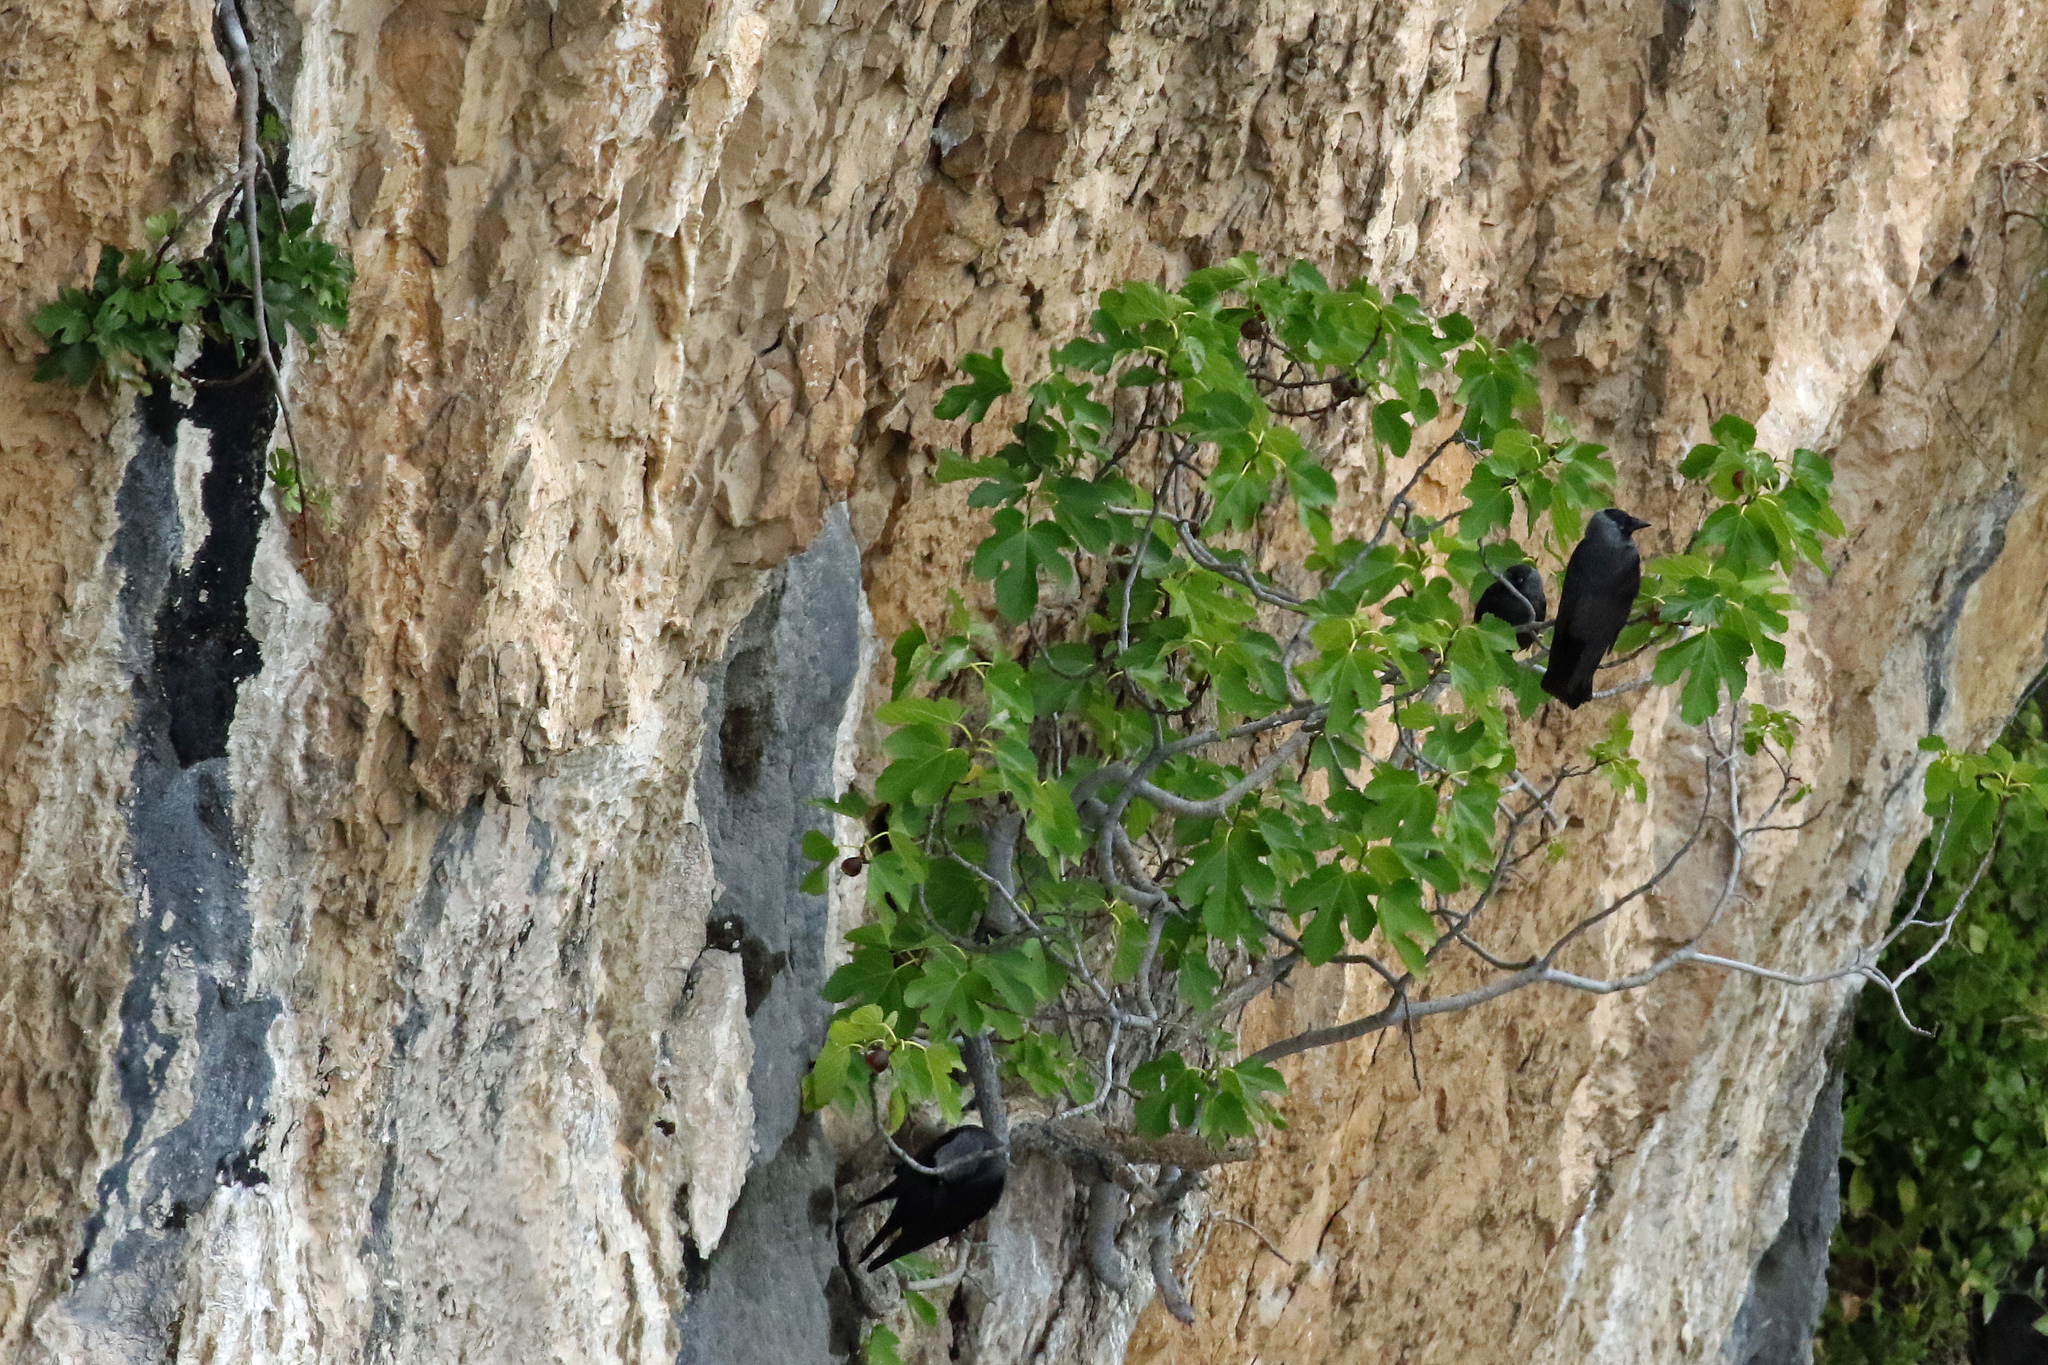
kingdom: Animalia
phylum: Chordata
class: Aves
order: Passeriformes
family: Corvidae
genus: Coloeus
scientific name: Coloeus monedula
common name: Western jackdaw
